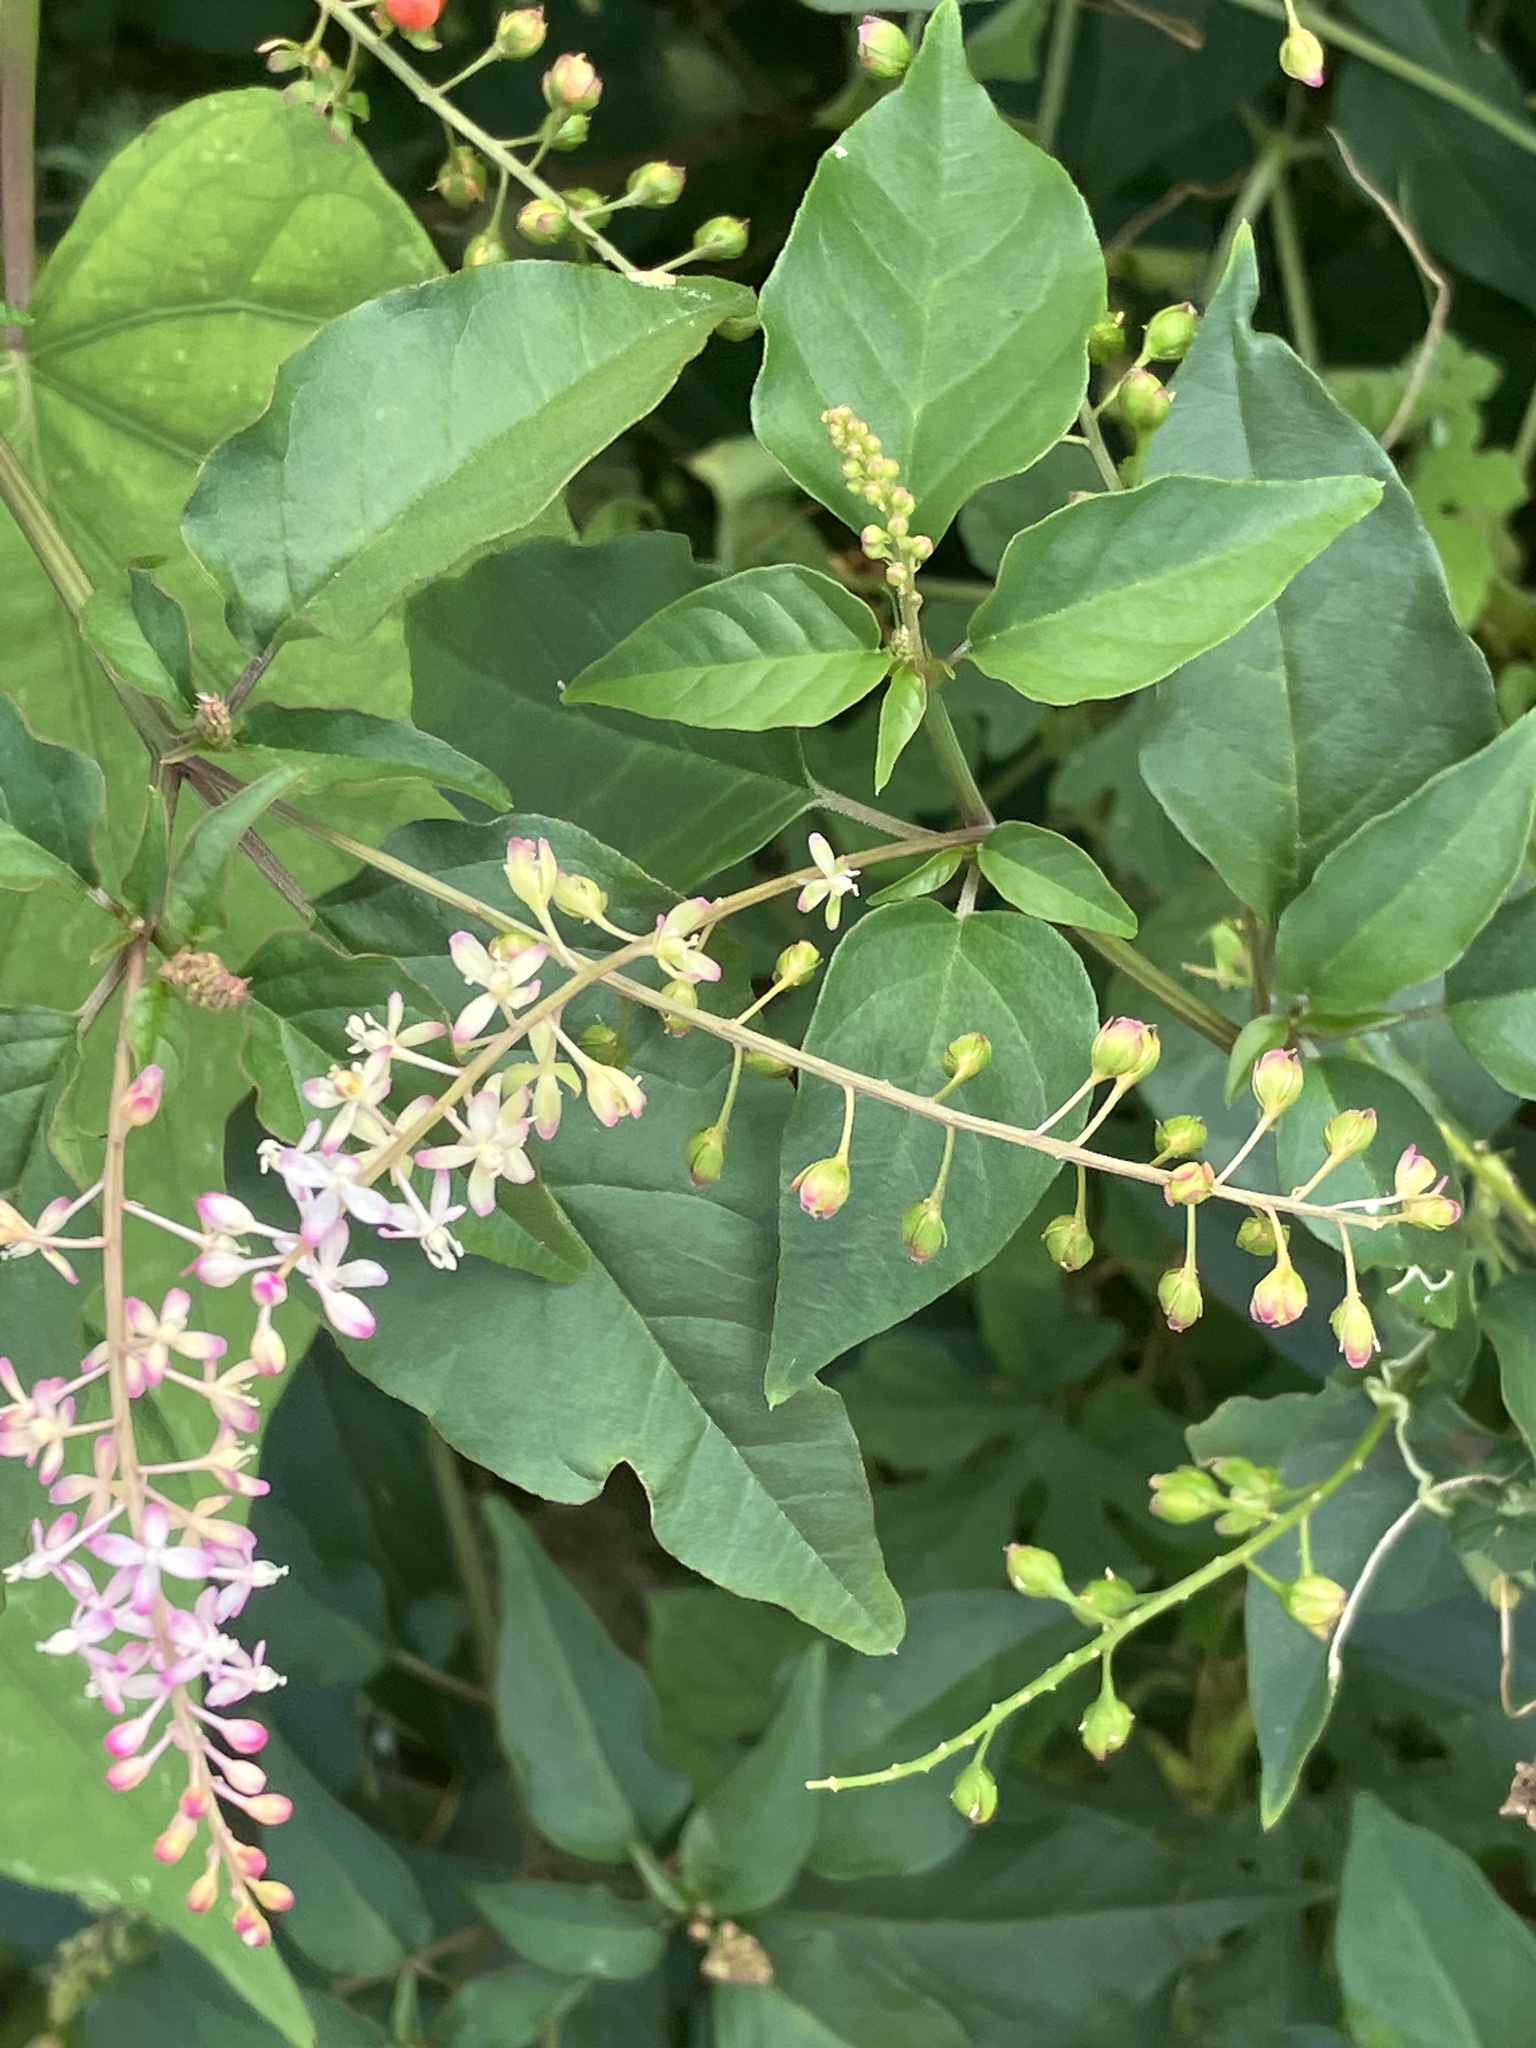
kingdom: Plantae
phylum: Tracheophyta
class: Magnoliopsida
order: Caryophyllales
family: Phytolaccaceae
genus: Rivina
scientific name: Rivina humilis
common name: Rougeplant
